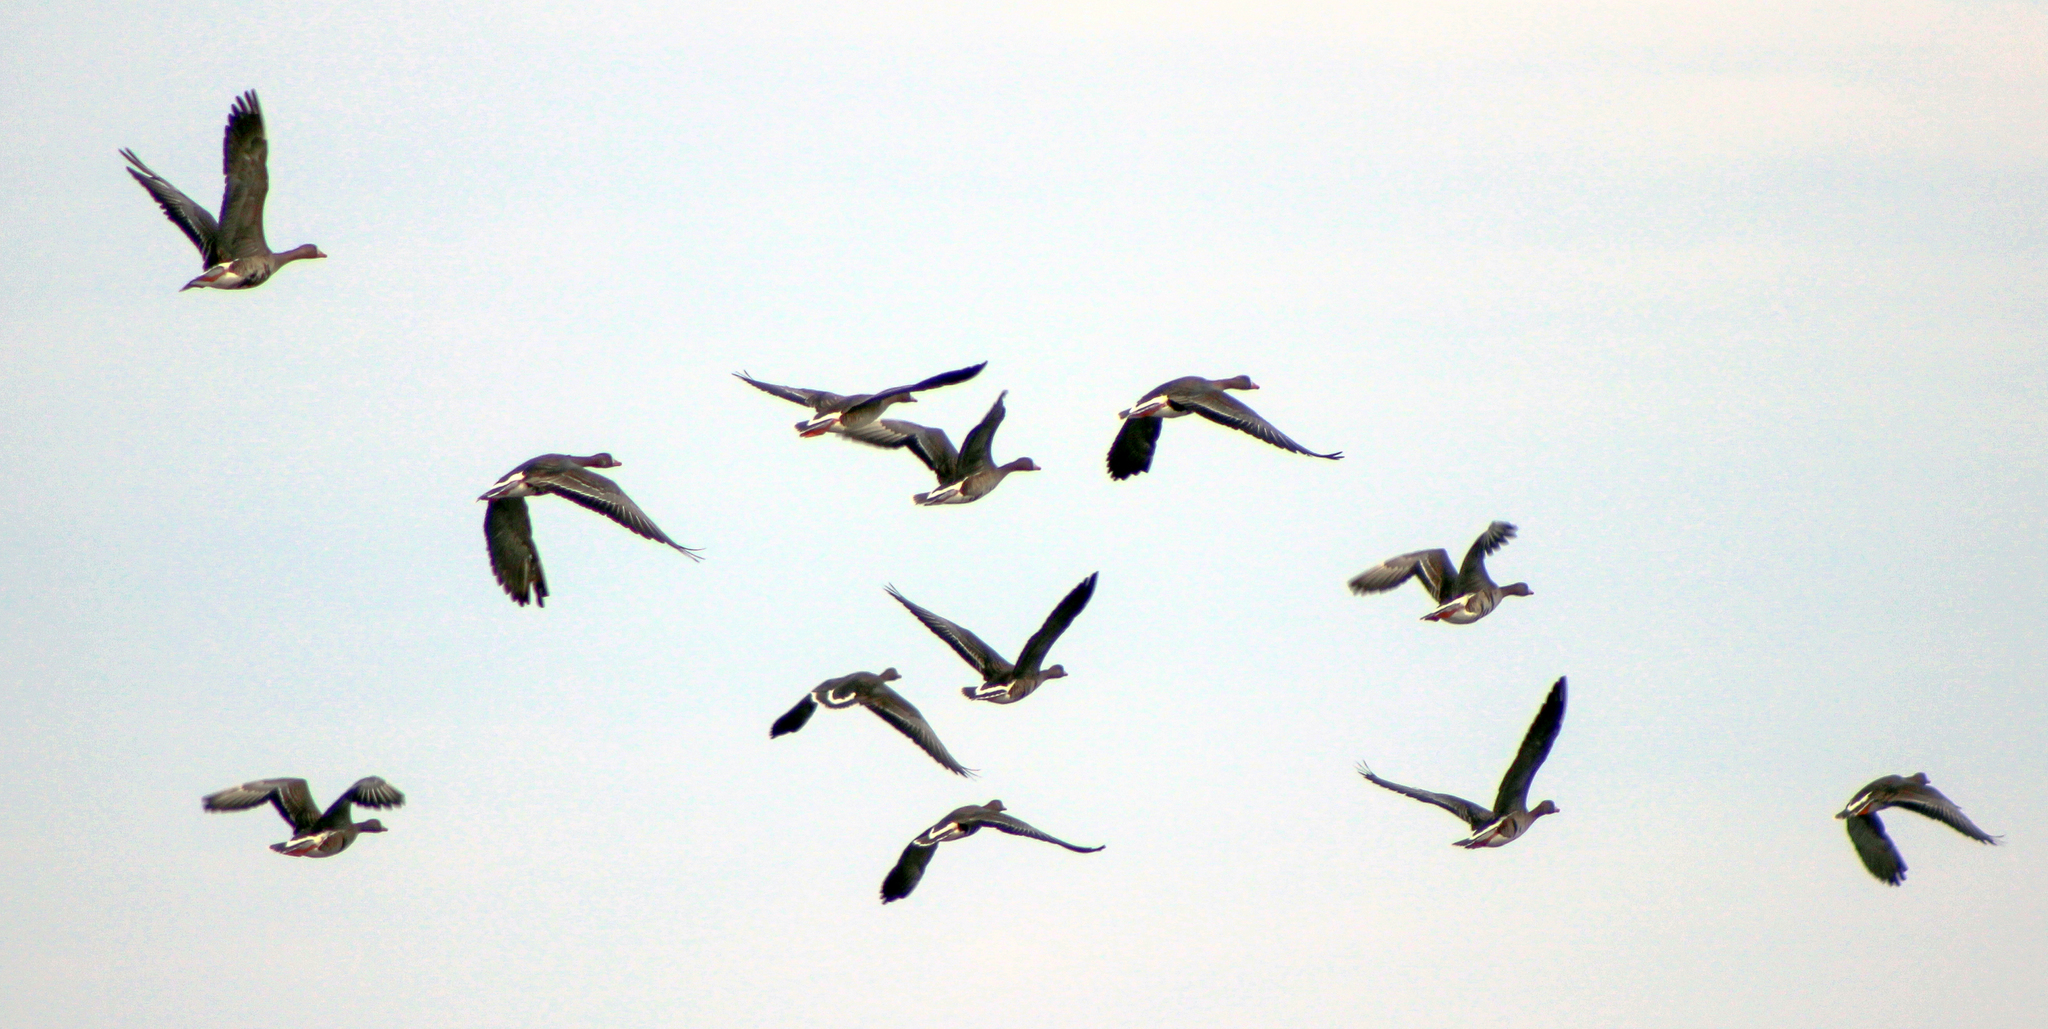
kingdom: Animalia
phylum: Chordata
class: Aves
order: Anseriformes
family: Anatidae
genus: Anser
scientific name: Anser albifrons
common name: Greater white-fronted goose
